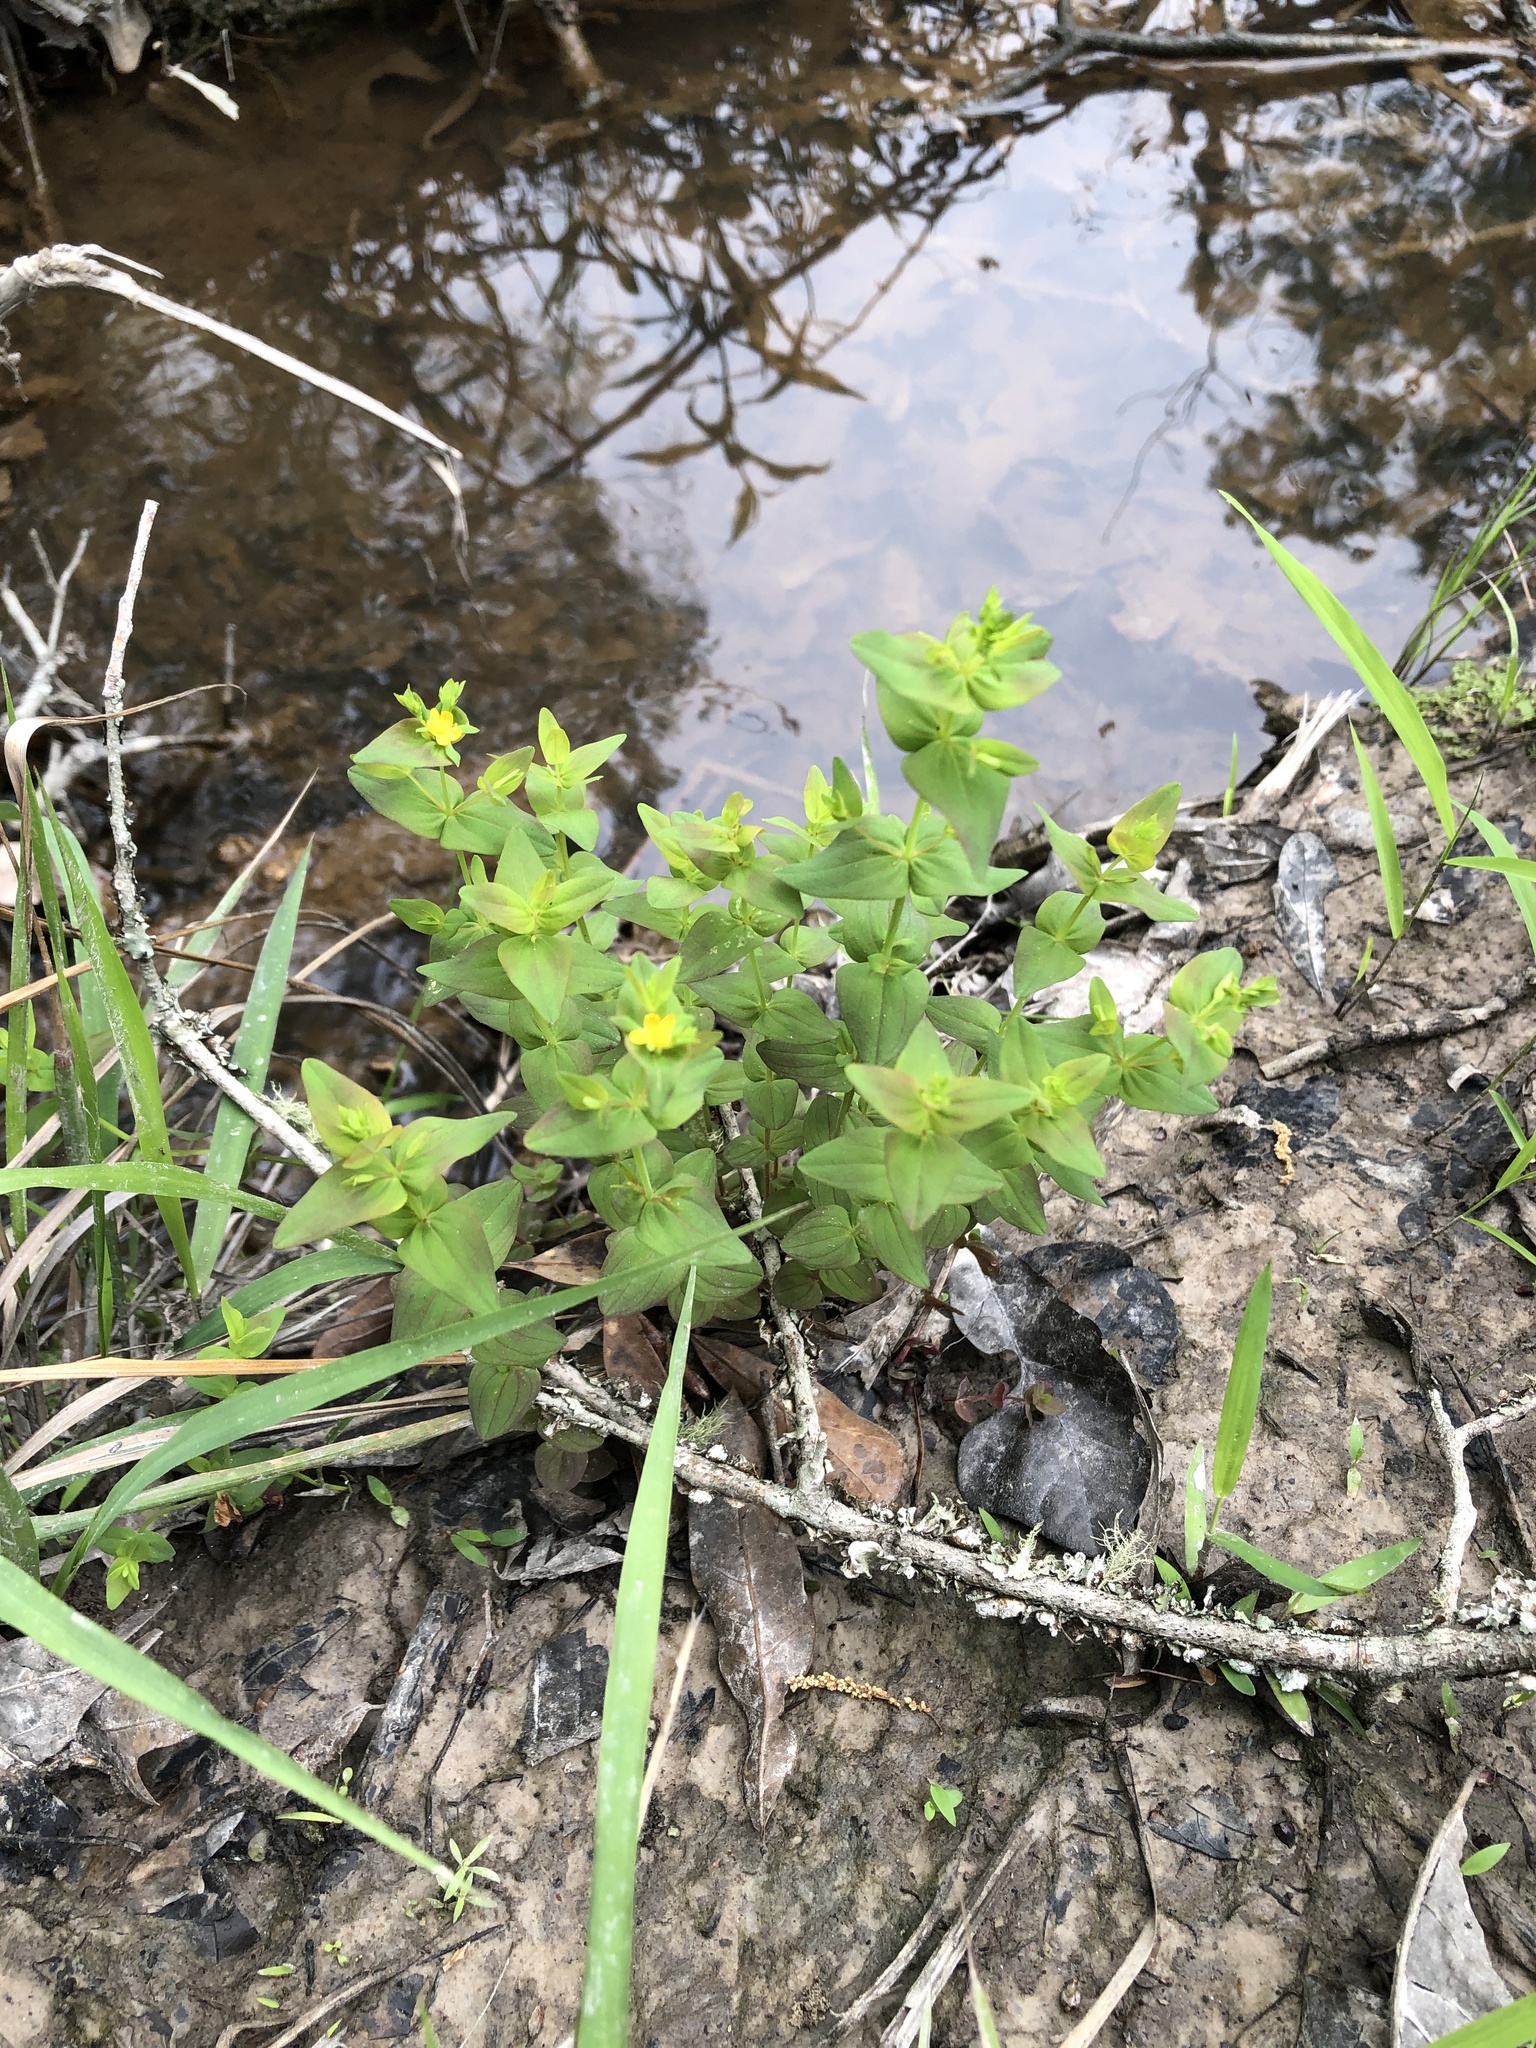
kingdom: Plantae
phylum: Tracheophyta
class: Magnoliopsida
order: Malpighiales
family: Hypericaceae
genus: Hypericum
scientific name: Hypericum mutilum
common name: Dwarf st. john's-wort
